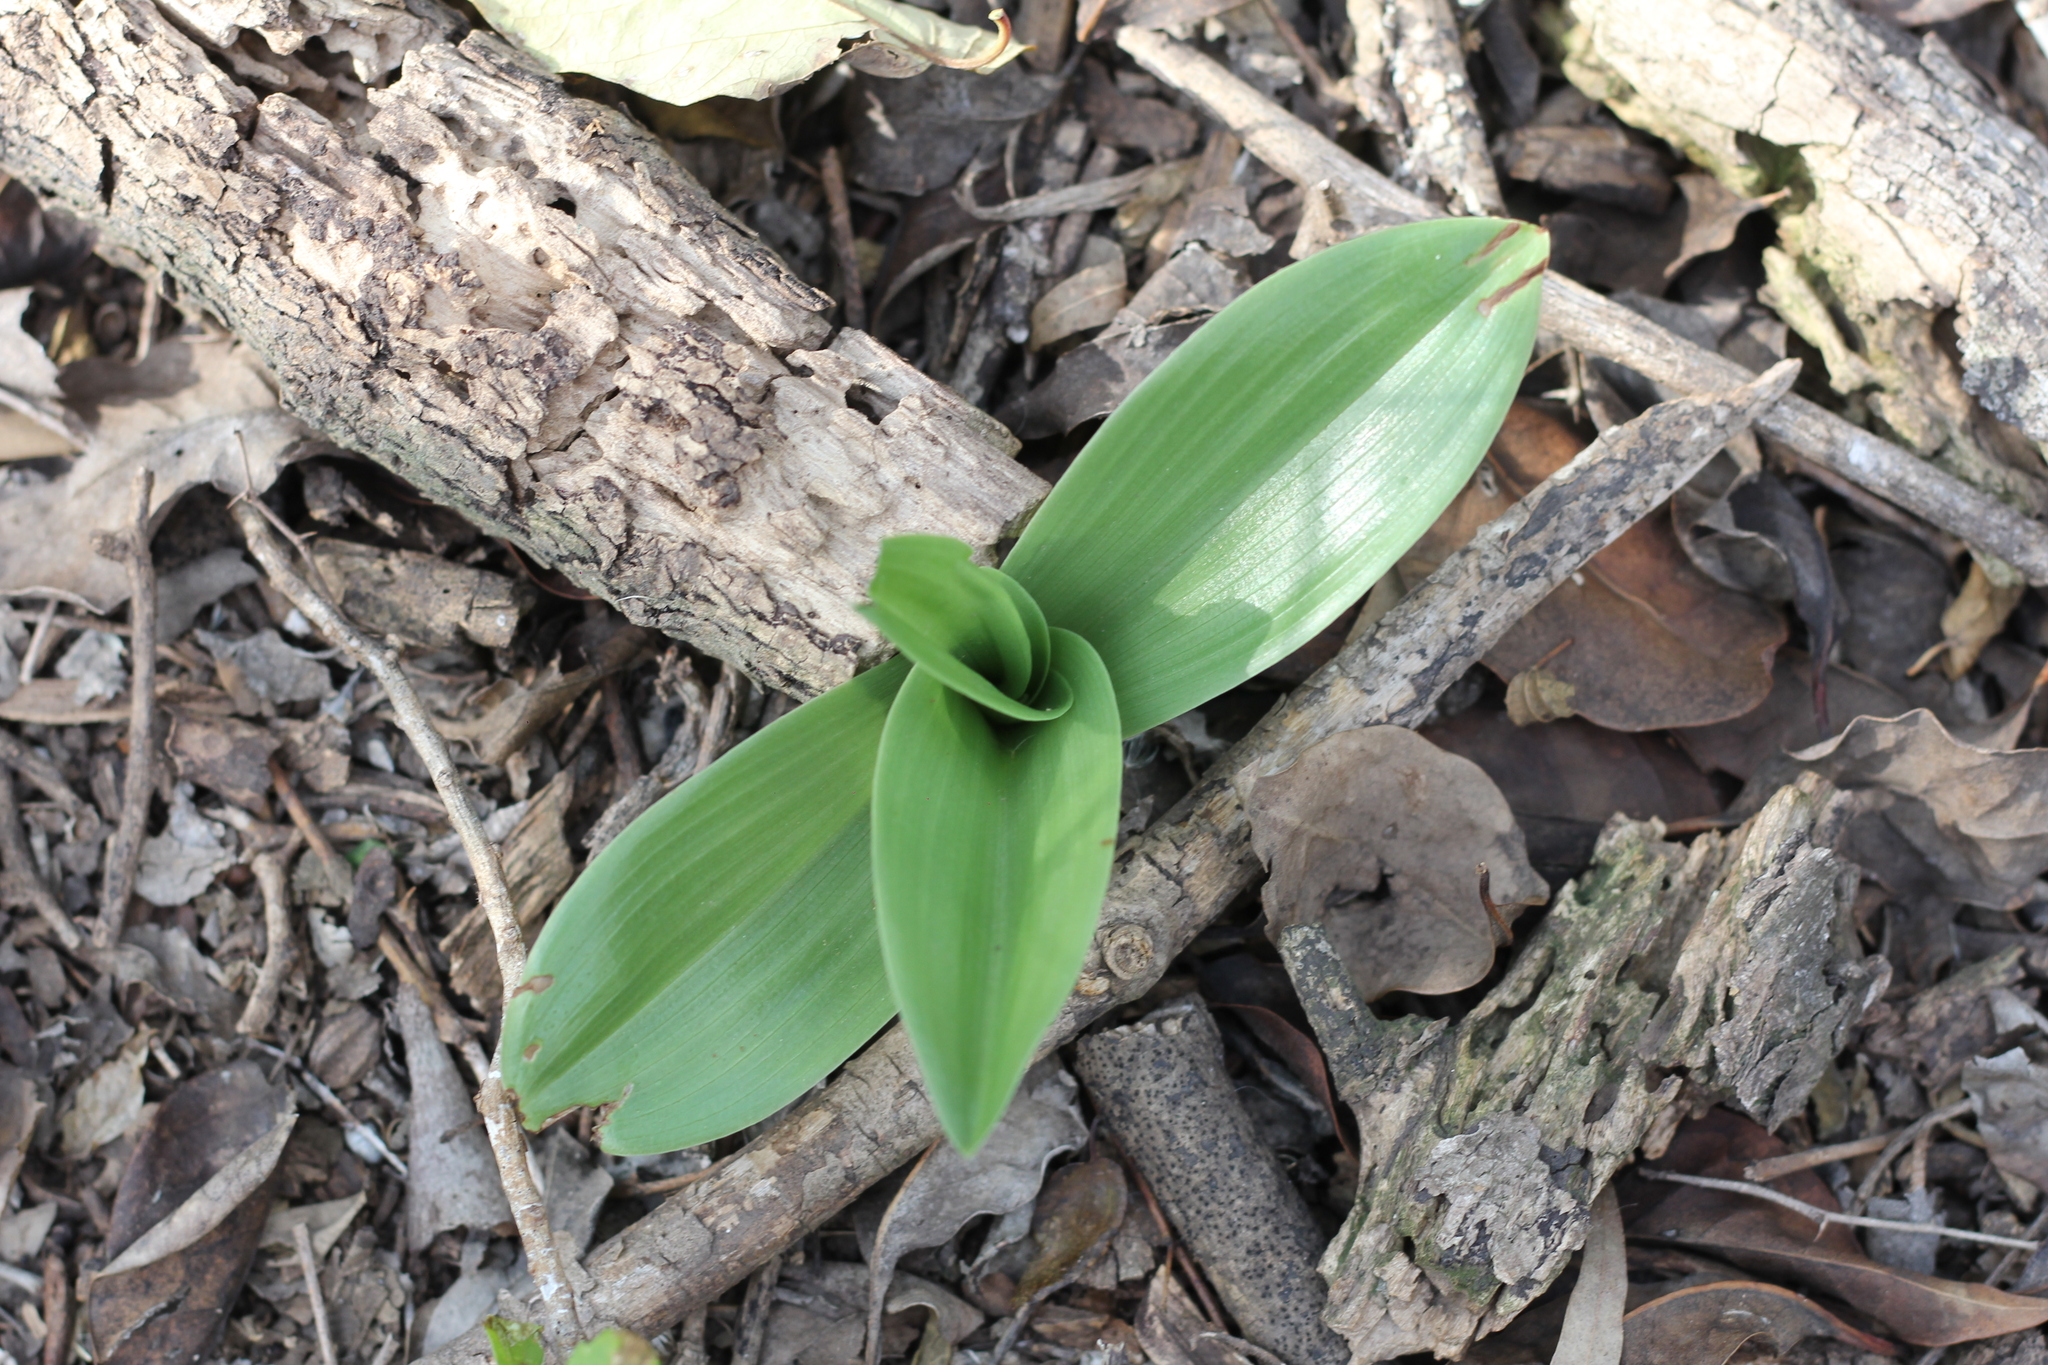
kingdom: Plantae
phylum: Tracheophyta
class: Liliopsida
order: Asparagales
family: Orchidaceae
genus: Chloraea
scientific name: Chloraea membranacea
